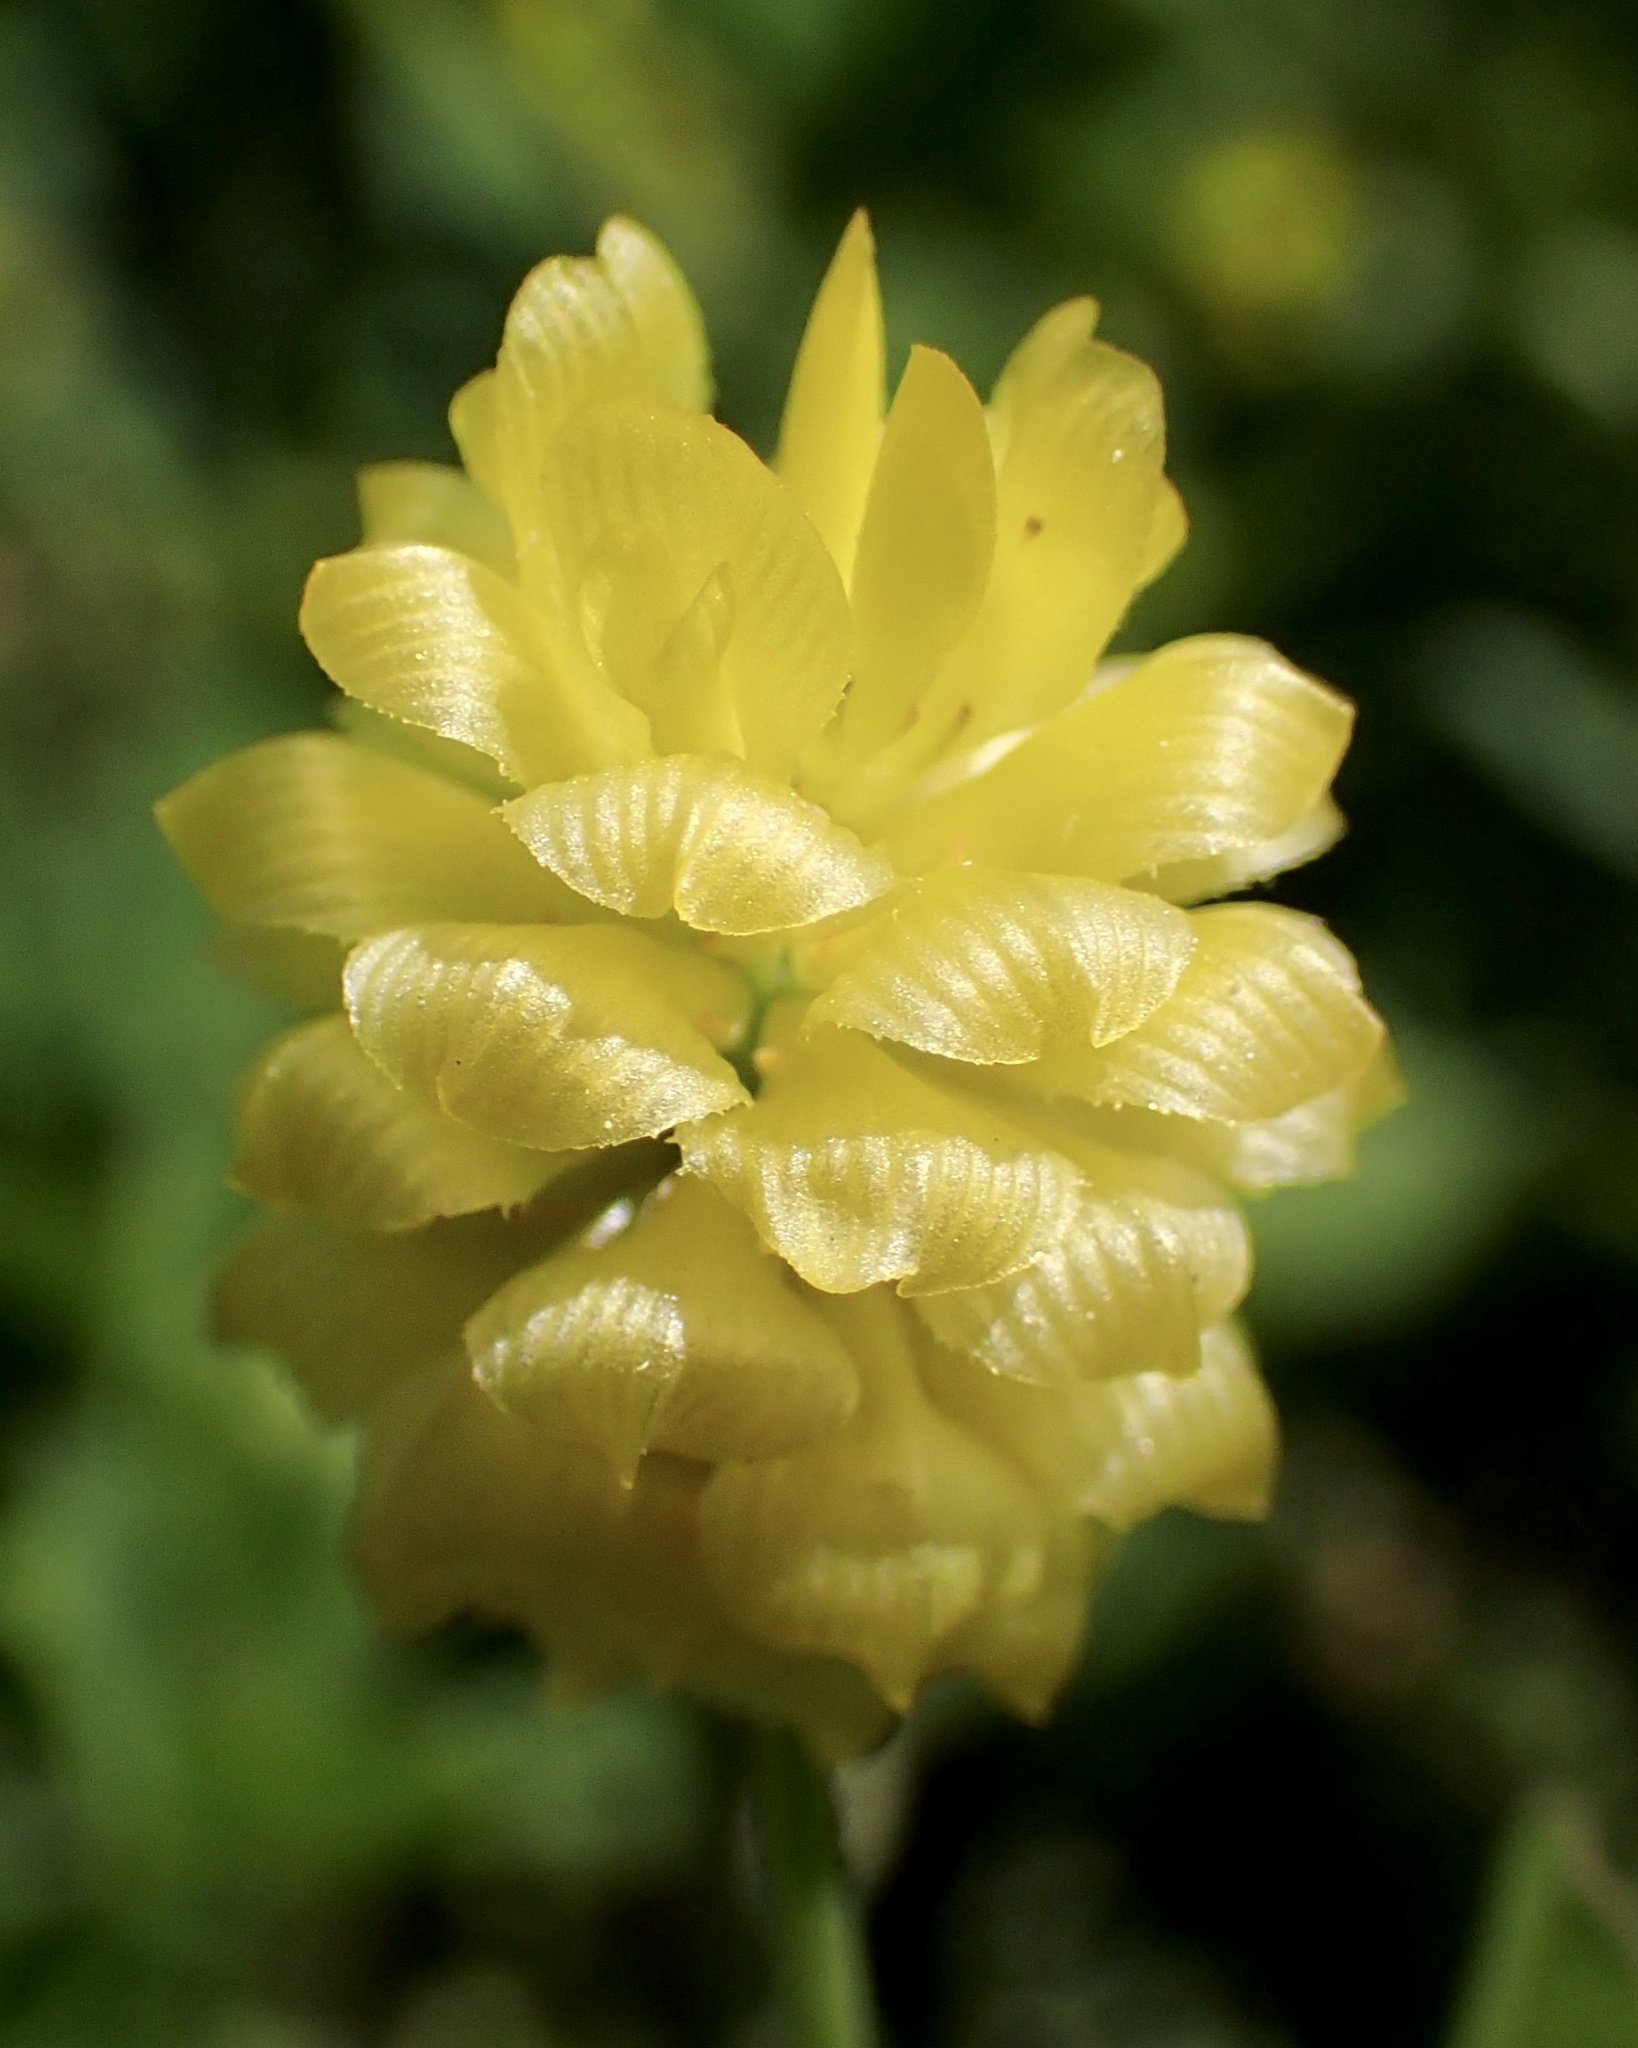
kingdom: Plantae
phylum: Tracheophyta
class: Magnoliopsida
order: Fabales
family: Fabaceae
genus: Trifolium
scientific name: Trifolium campestre
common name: Field clover
